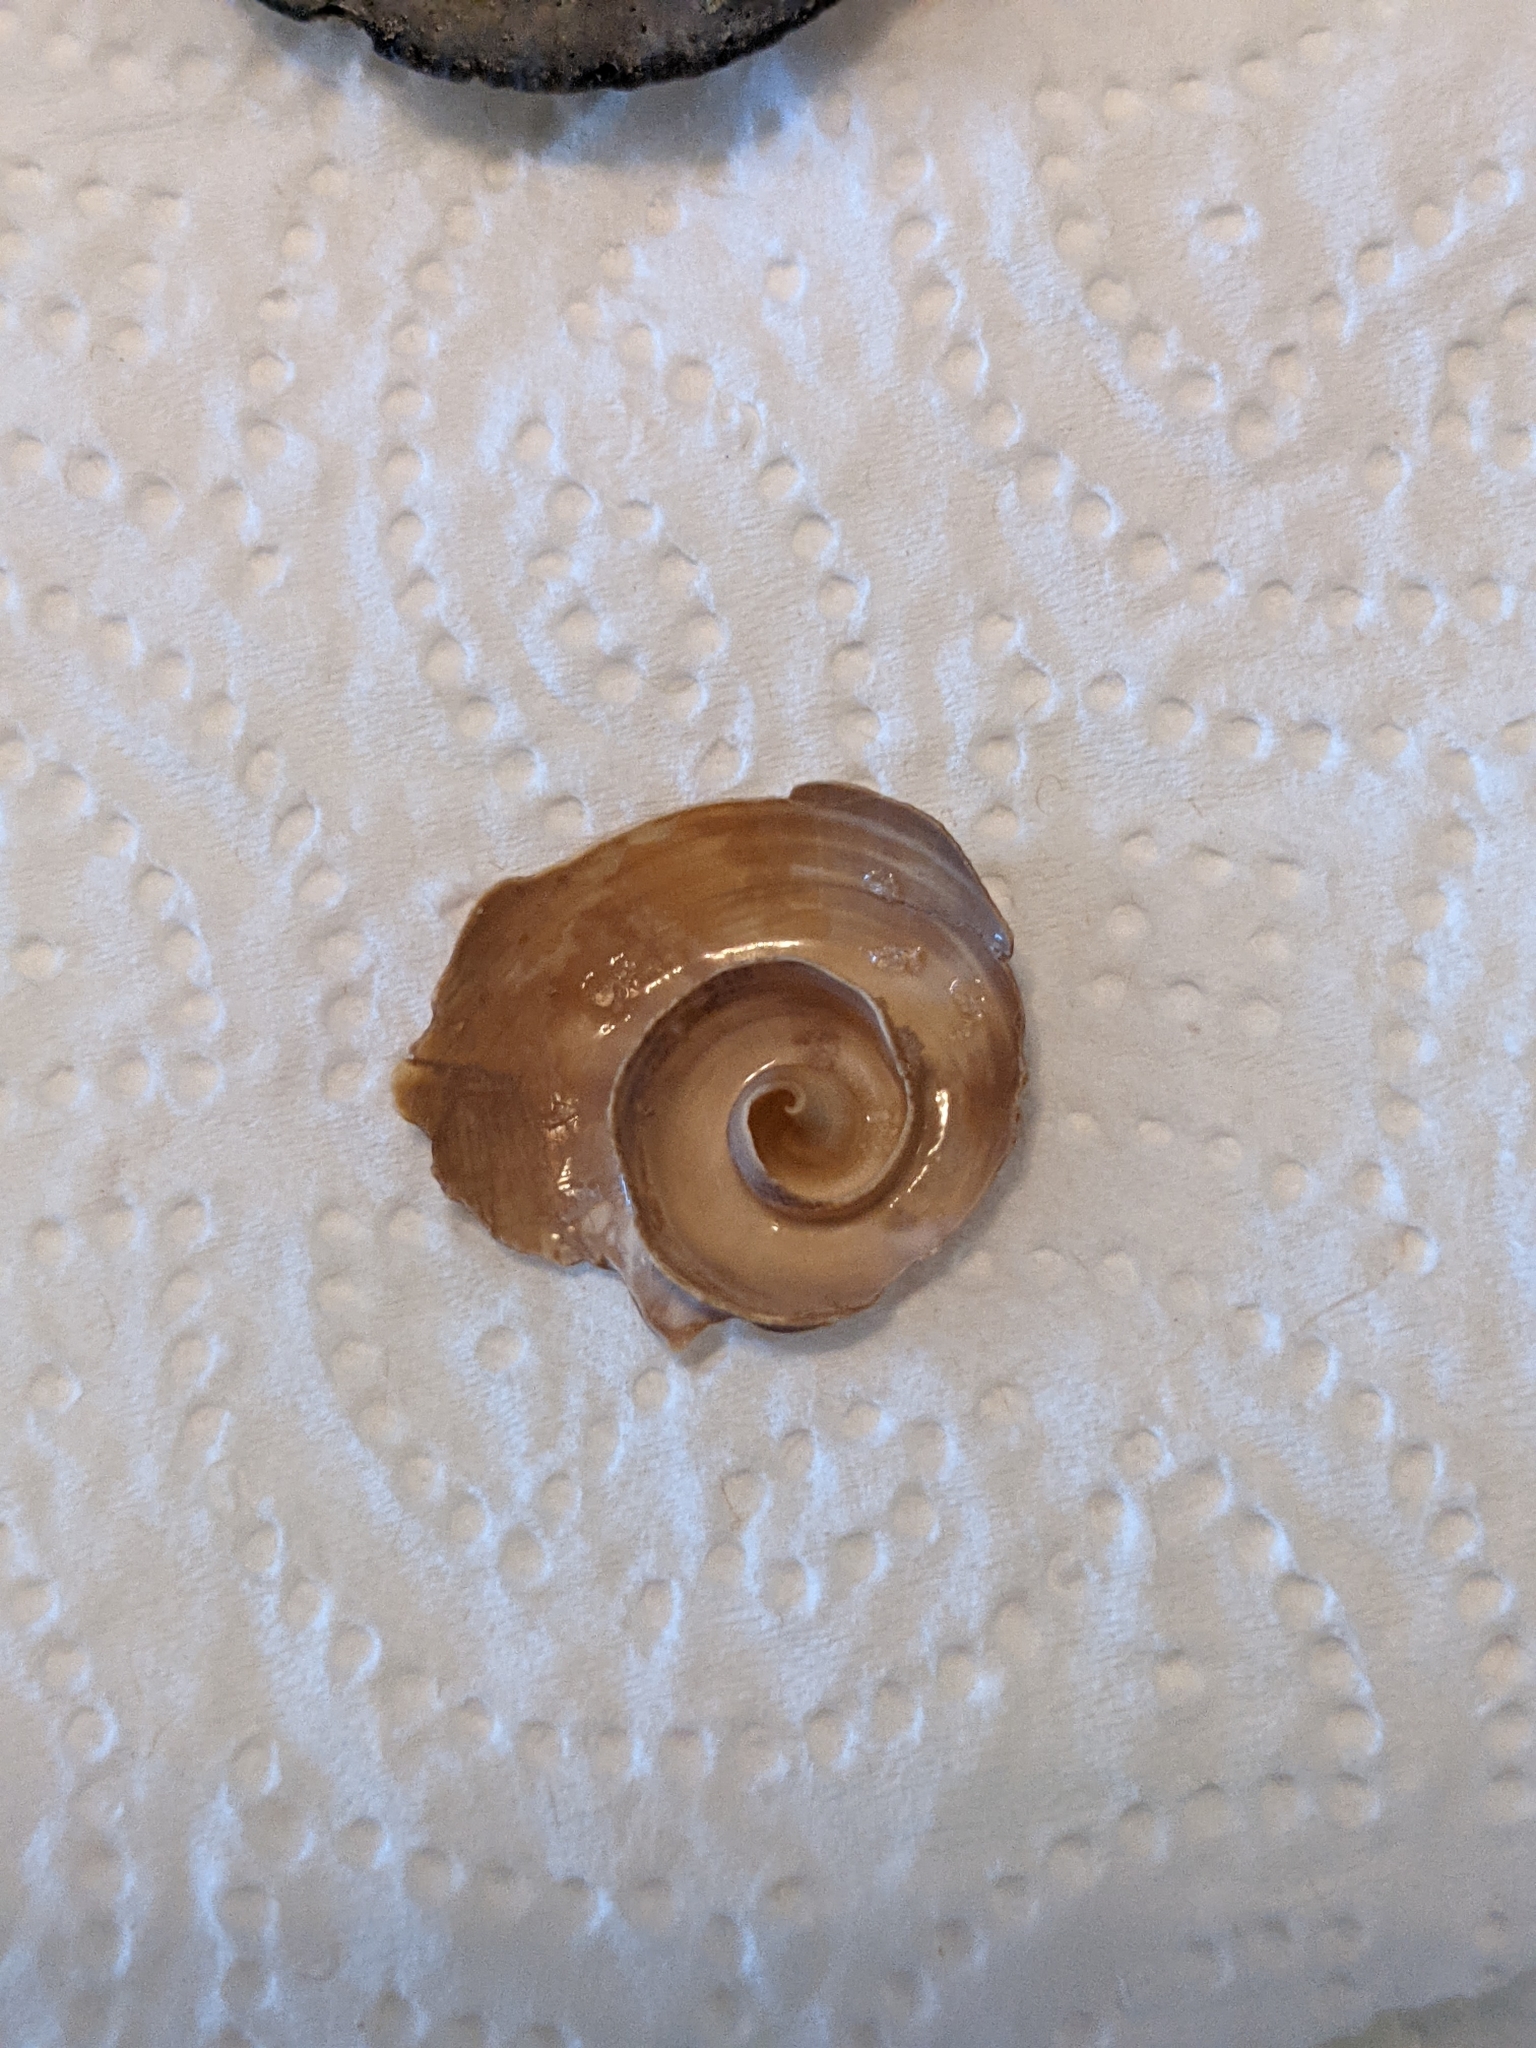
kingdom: Animalia
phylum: Mollusca
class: Gastropoda
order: Littorinimorpha
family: Ficidae
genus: Ficus
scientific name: Ficus papyratia
